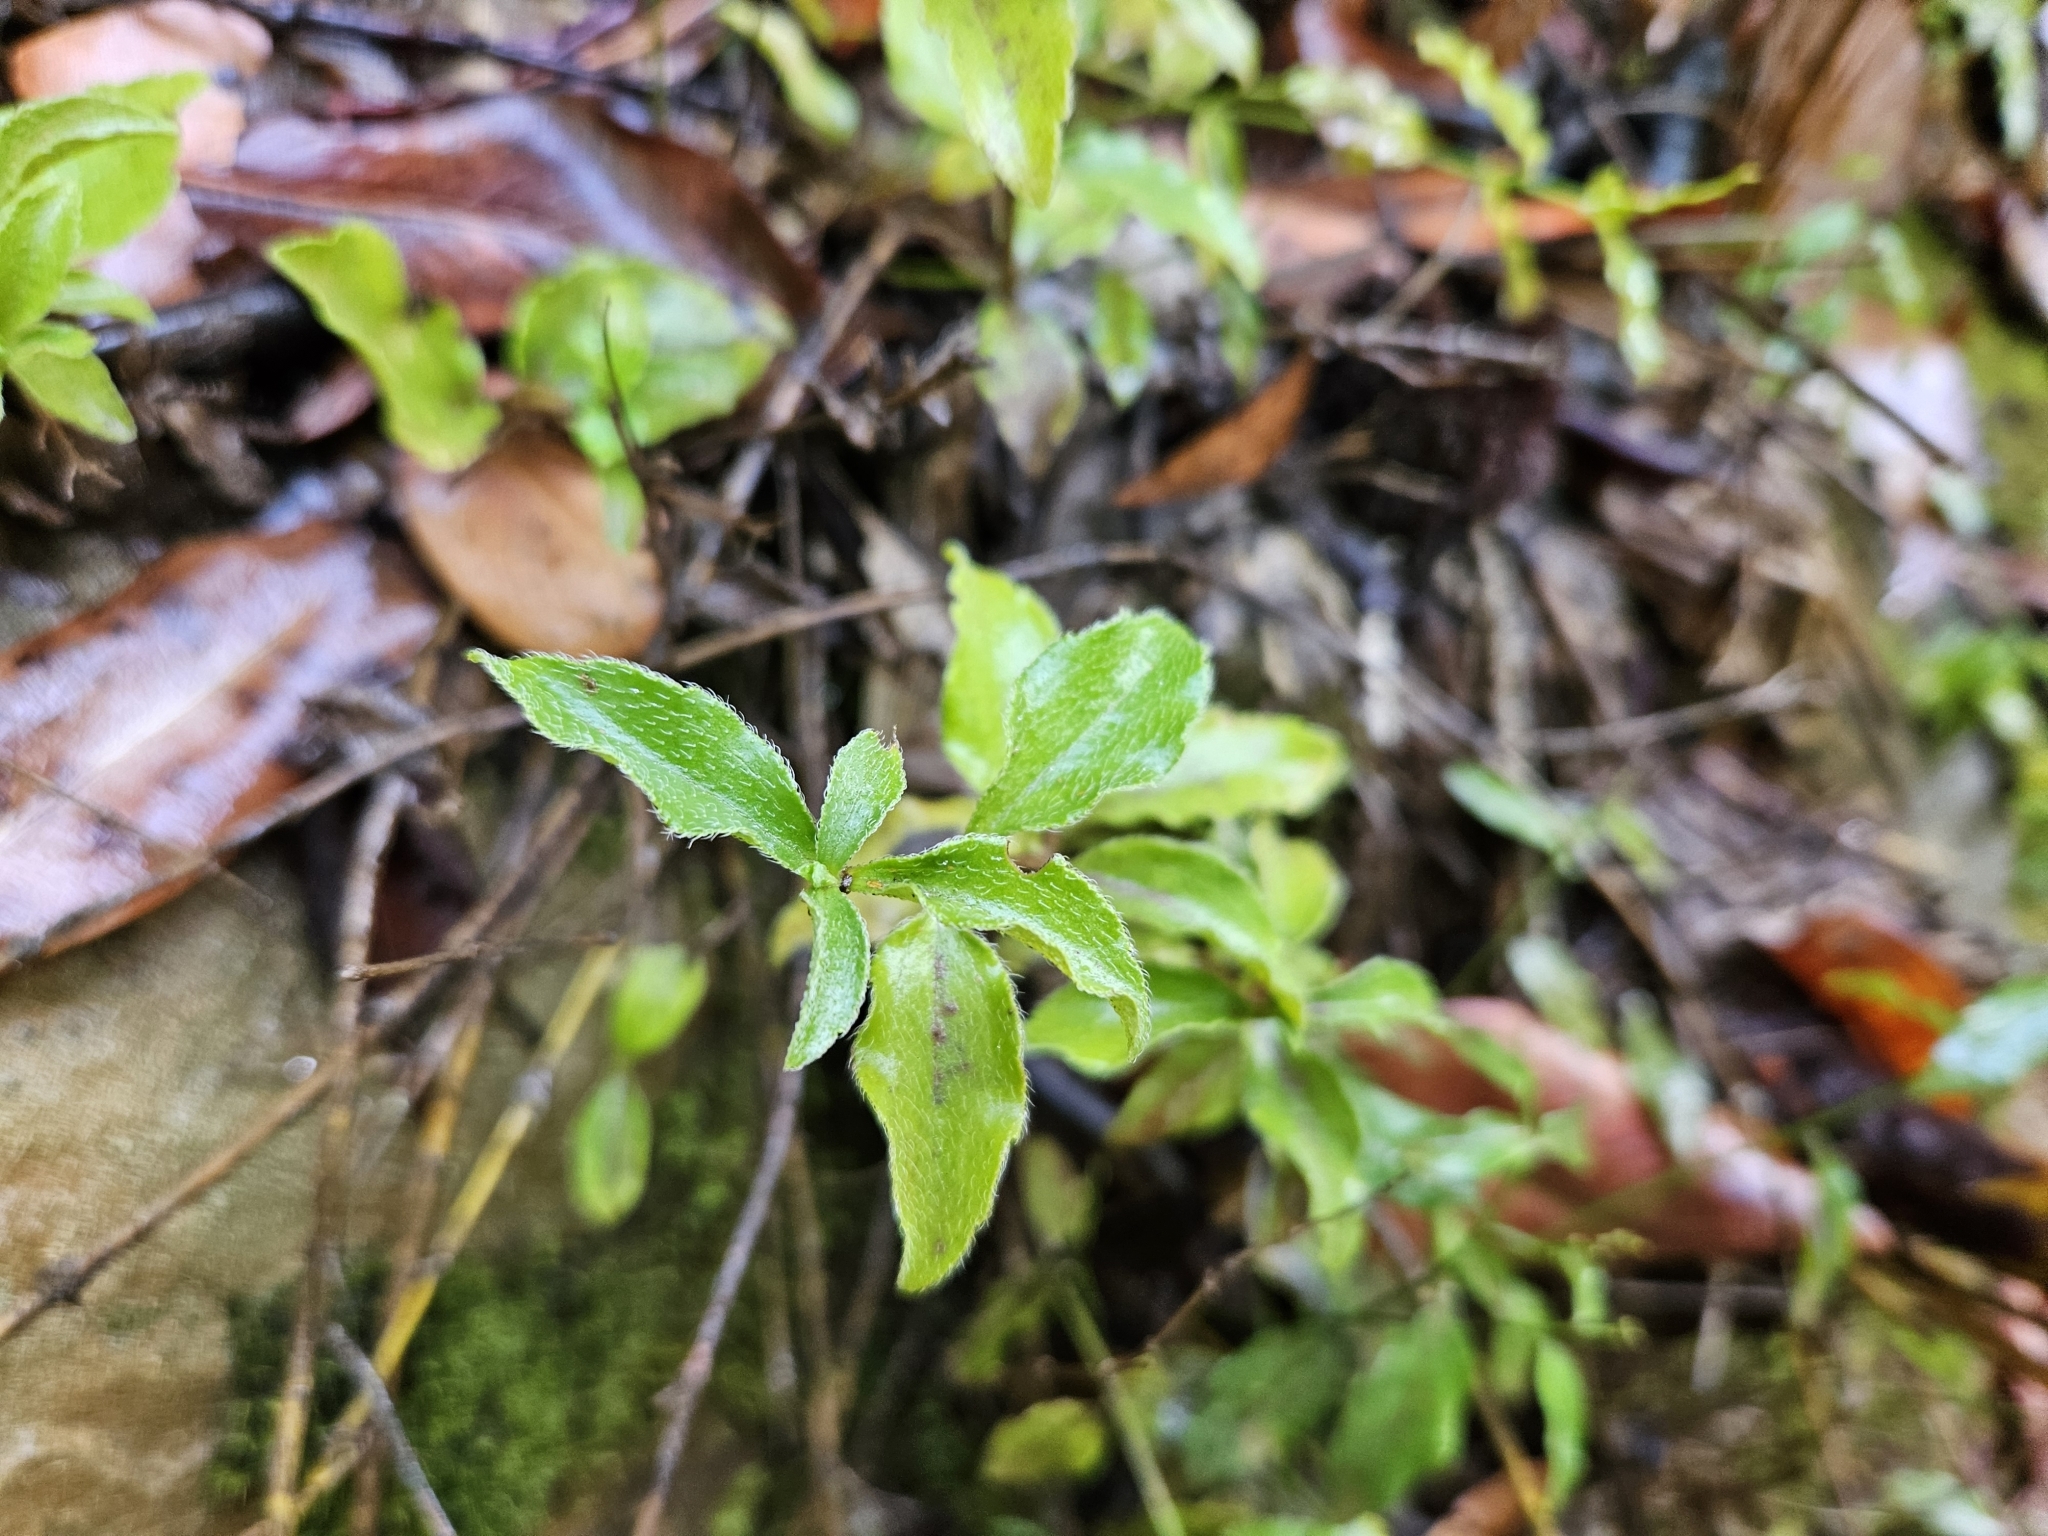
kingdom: Plantae
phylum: Tracheophyta
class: Magnoliopsida
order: Cornales
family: Hydrangeaceae
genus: Whipplea
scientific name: Whipplea modesta
